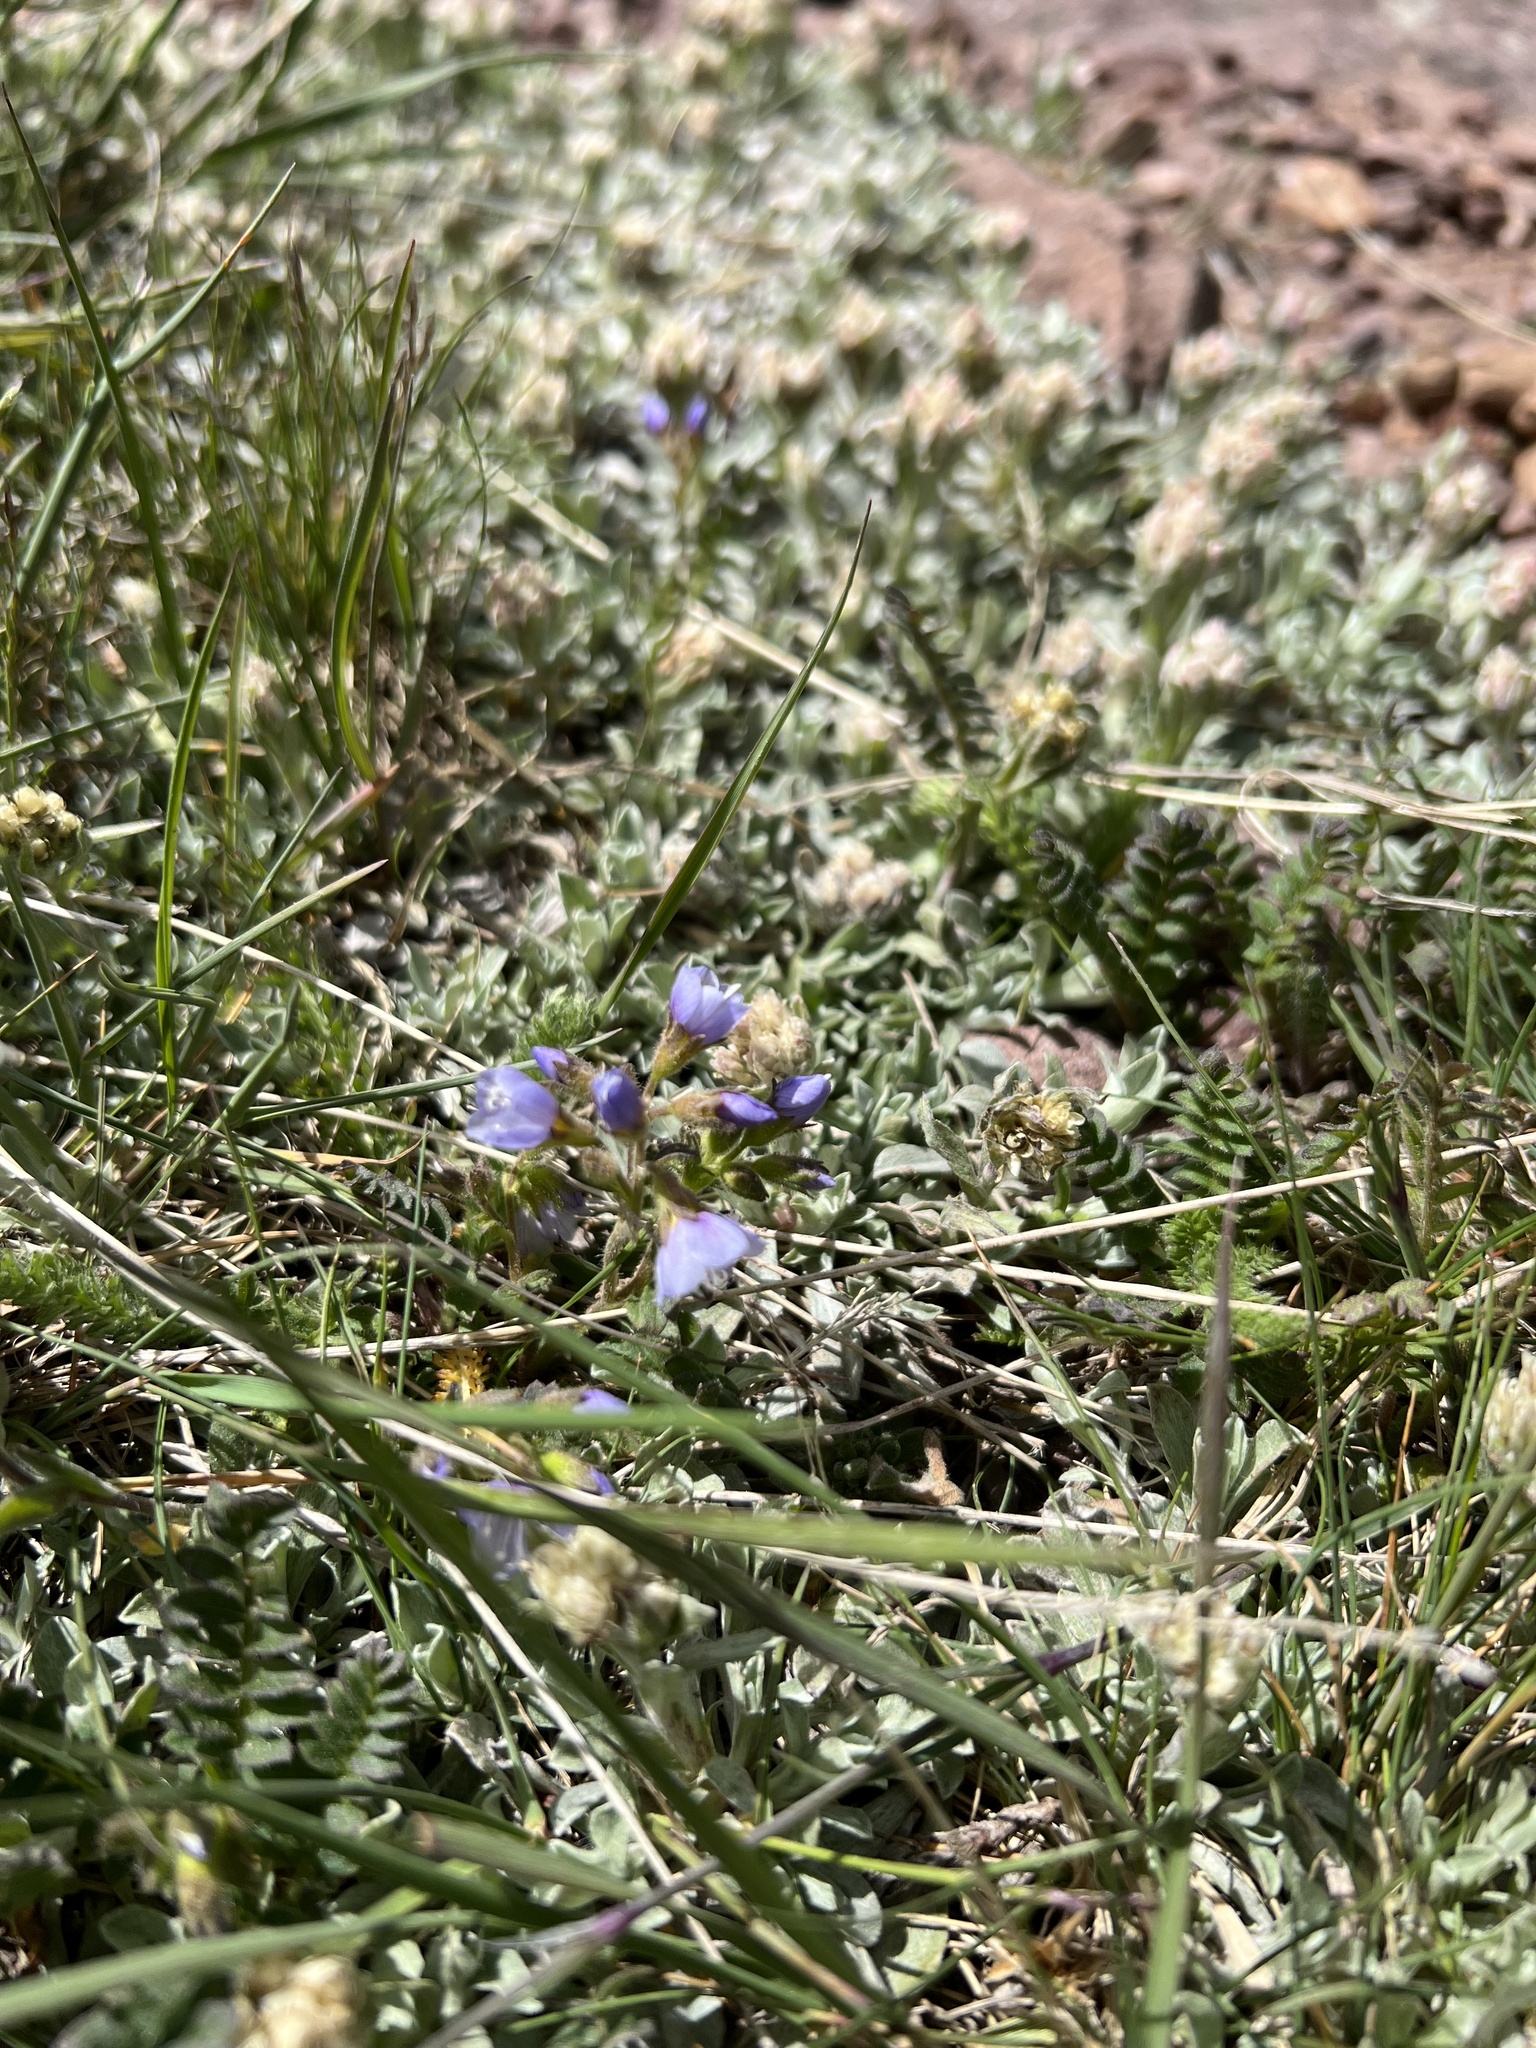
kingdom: Plantae
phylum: Tracheophyta
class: Magnoliopsida
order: Ericales
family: Polemoniaceae
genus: Polemonium
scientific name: Polemonium pulcherrimum
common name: Short jacob's-ladder
